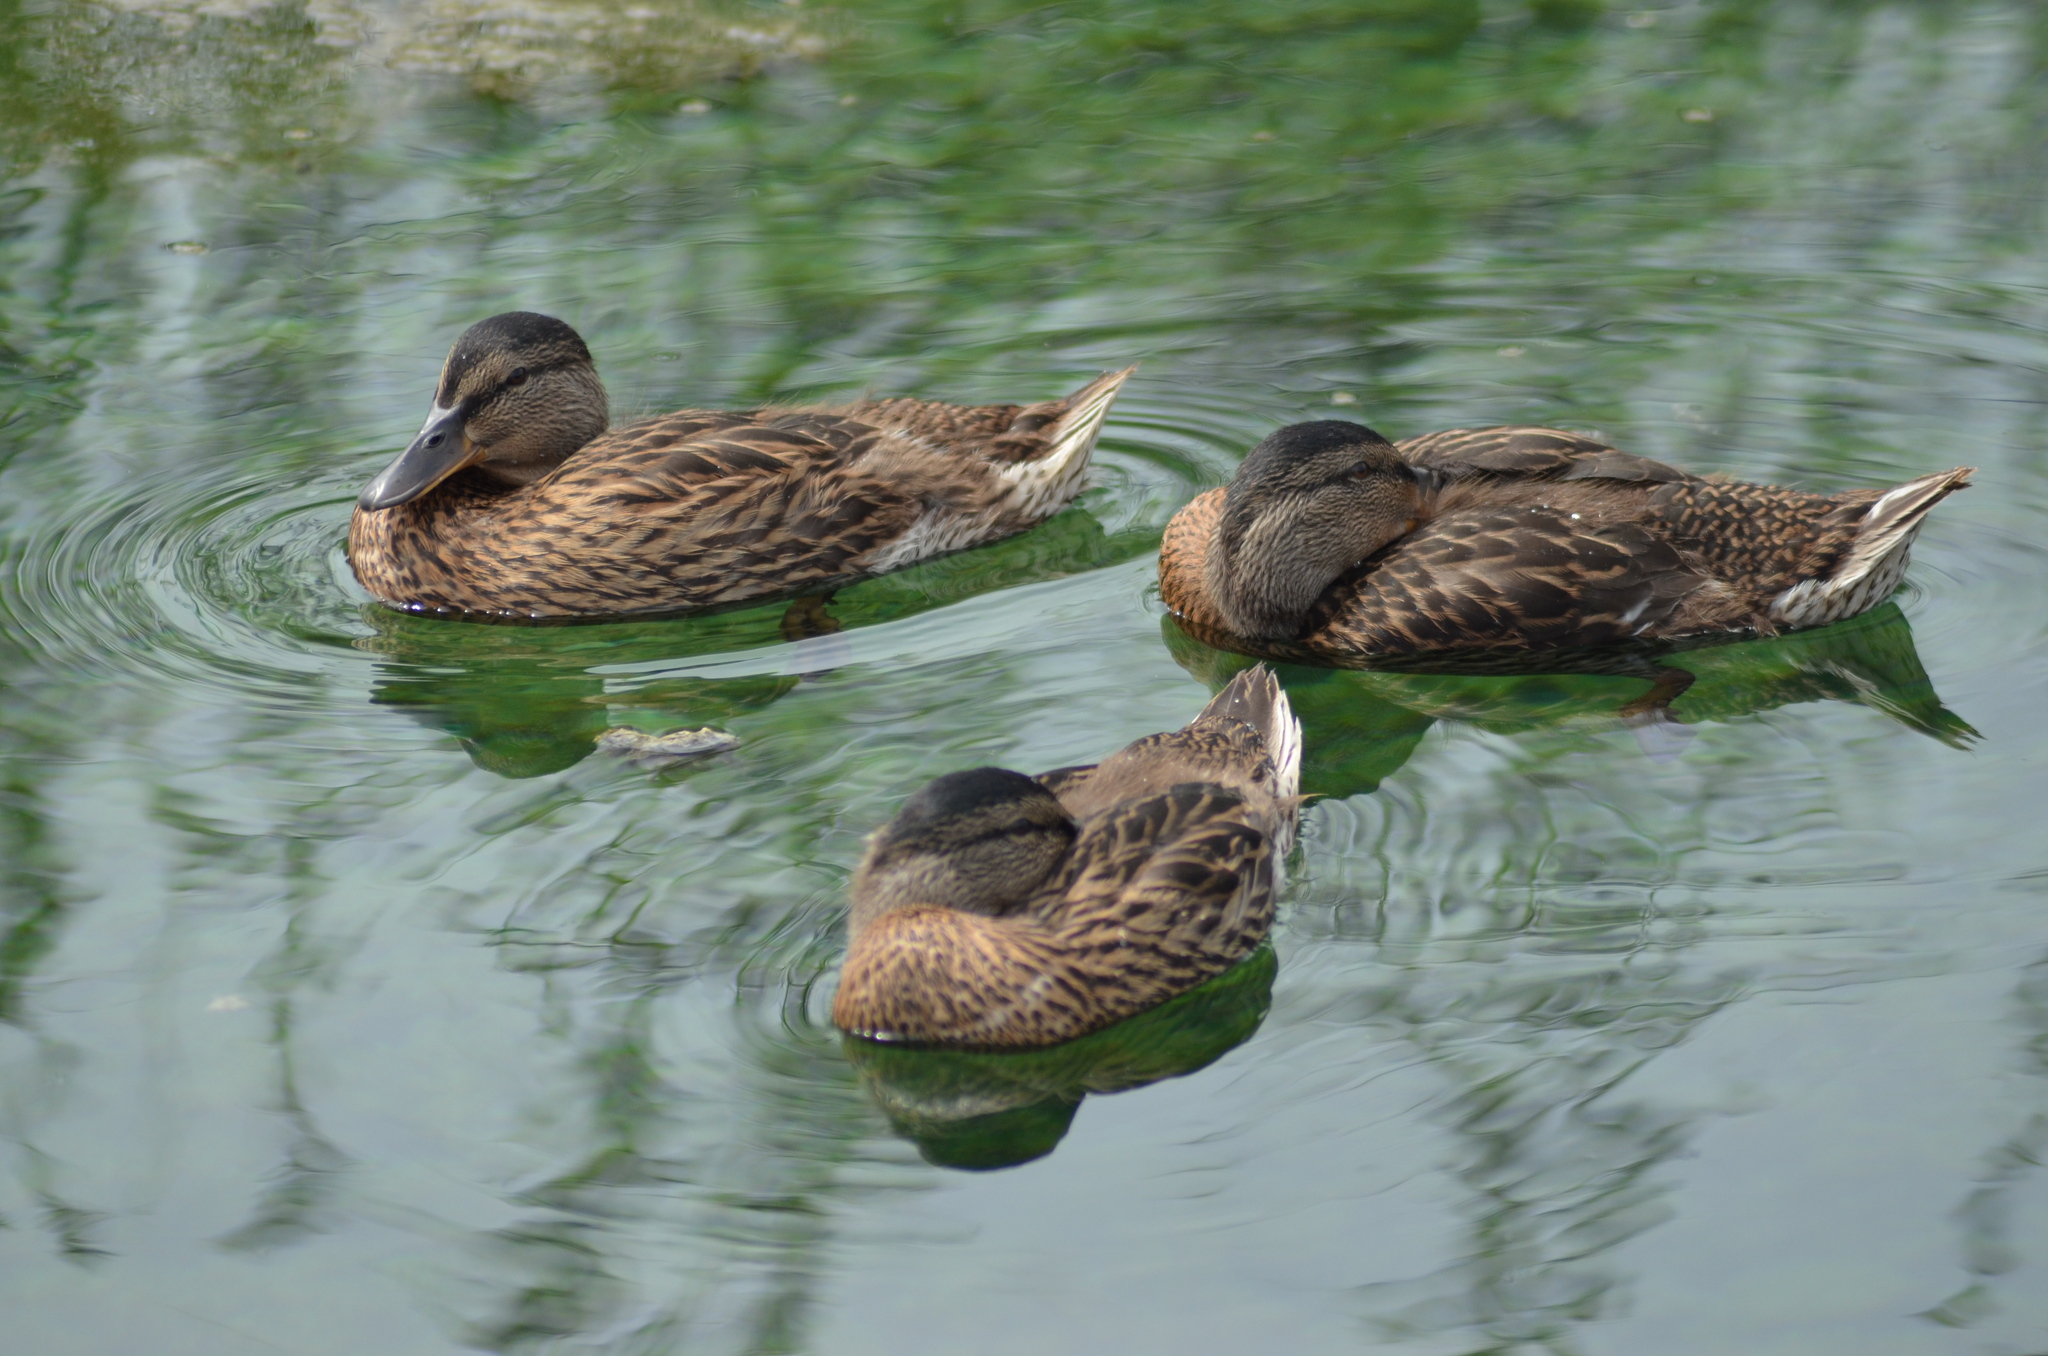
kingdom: Animalia
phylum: Chordata
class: Aves
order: Anseriformes
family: Anatidae
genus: Anas
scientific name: Anas platyrhynchos
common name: Mallard
